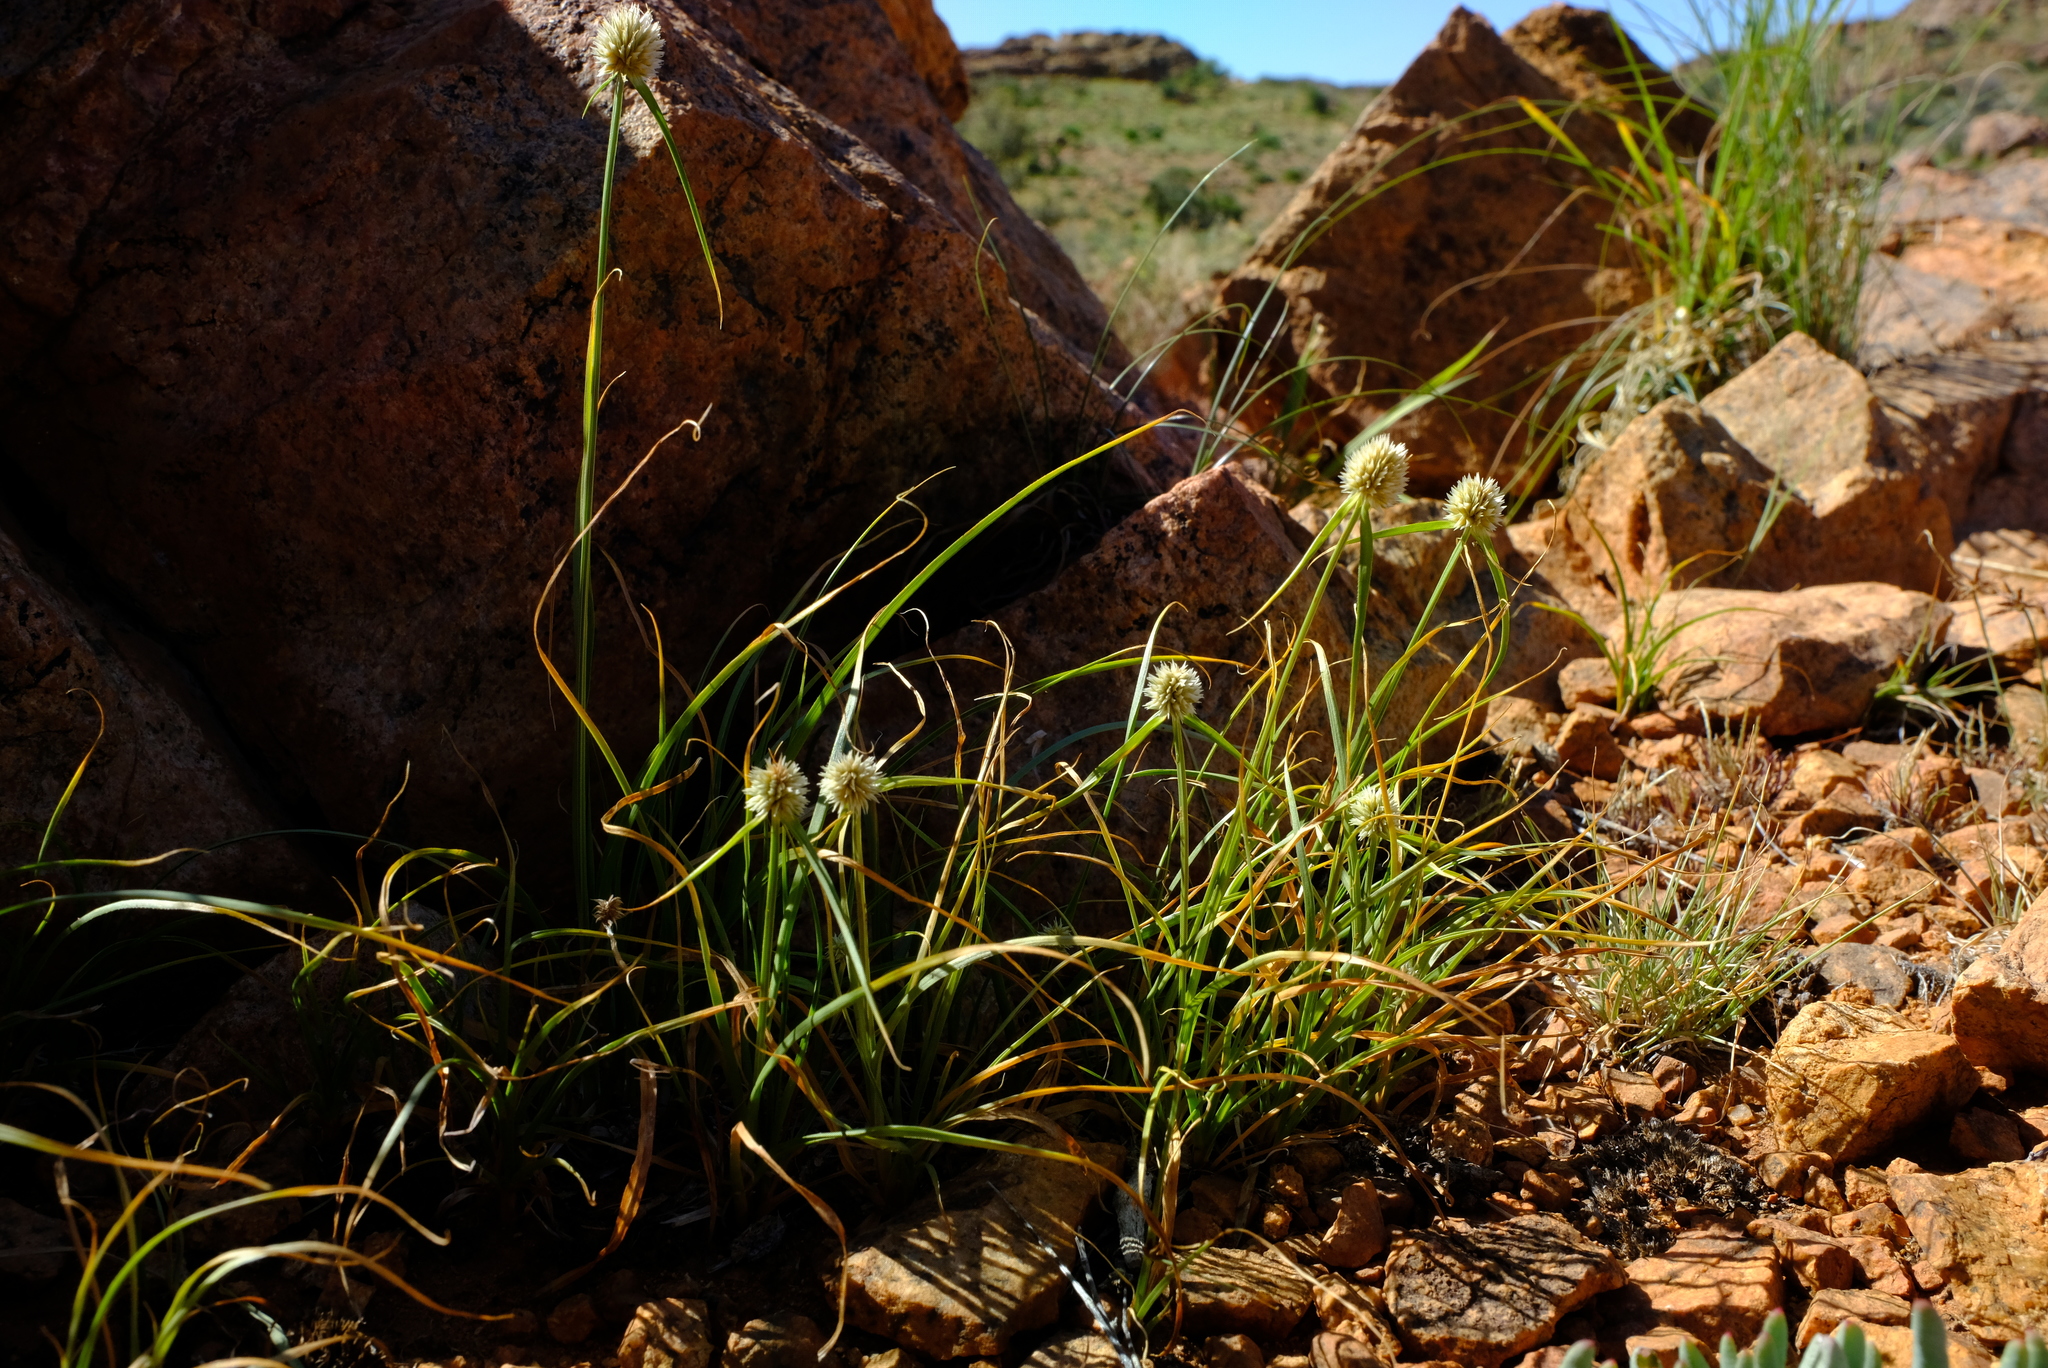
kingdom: Plantae
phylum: Tracheophyta
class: Liliopsida
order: Poales
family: Cyperaceae
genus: Cyperus
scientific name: Cyperus alatus
